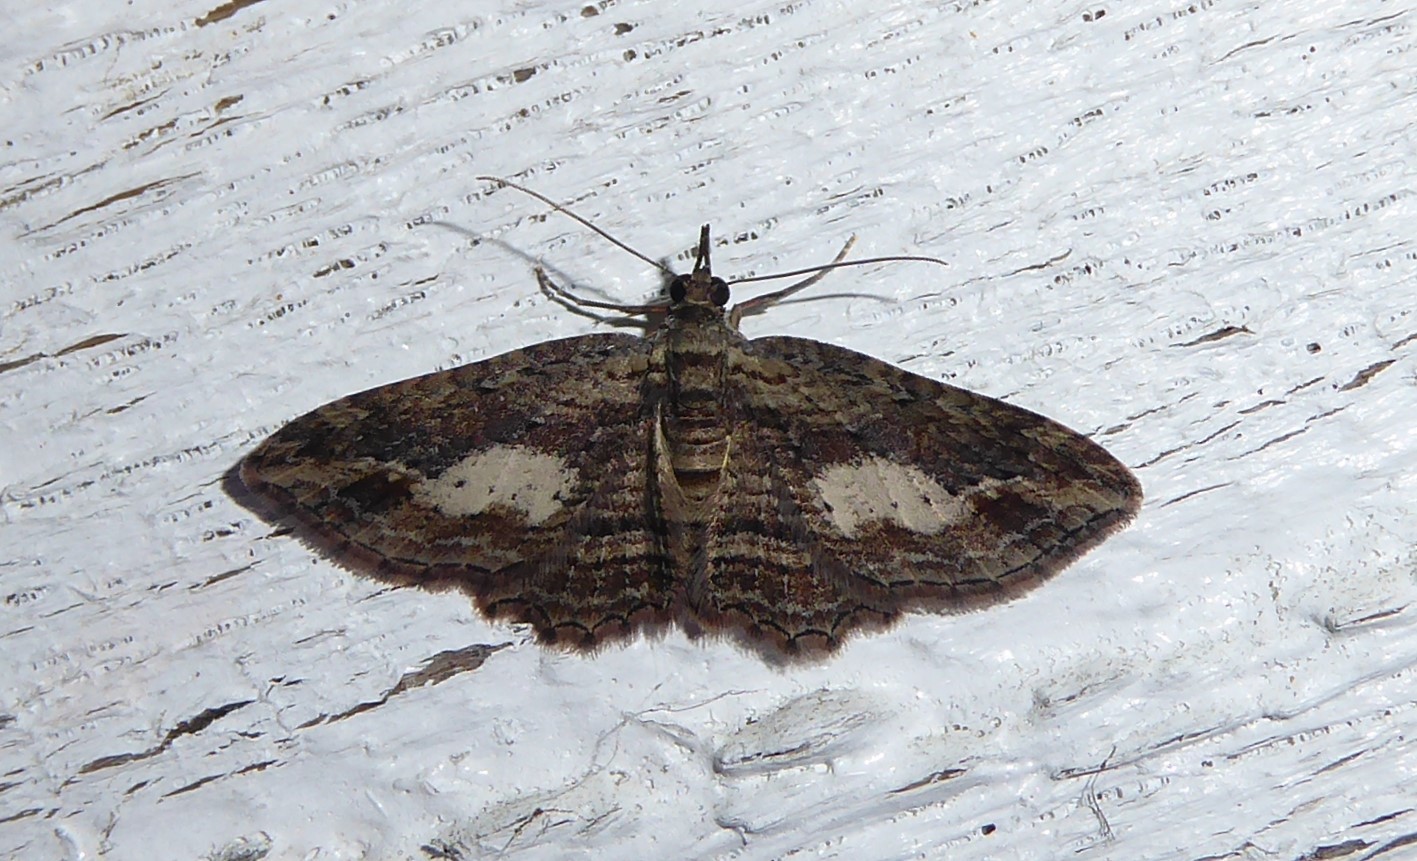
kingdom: Animalia
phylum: Arthropoda
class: Insecta
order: Lepidoptera
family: Geometridae
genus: Chloroclystis
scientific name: Chloroclystis filata
